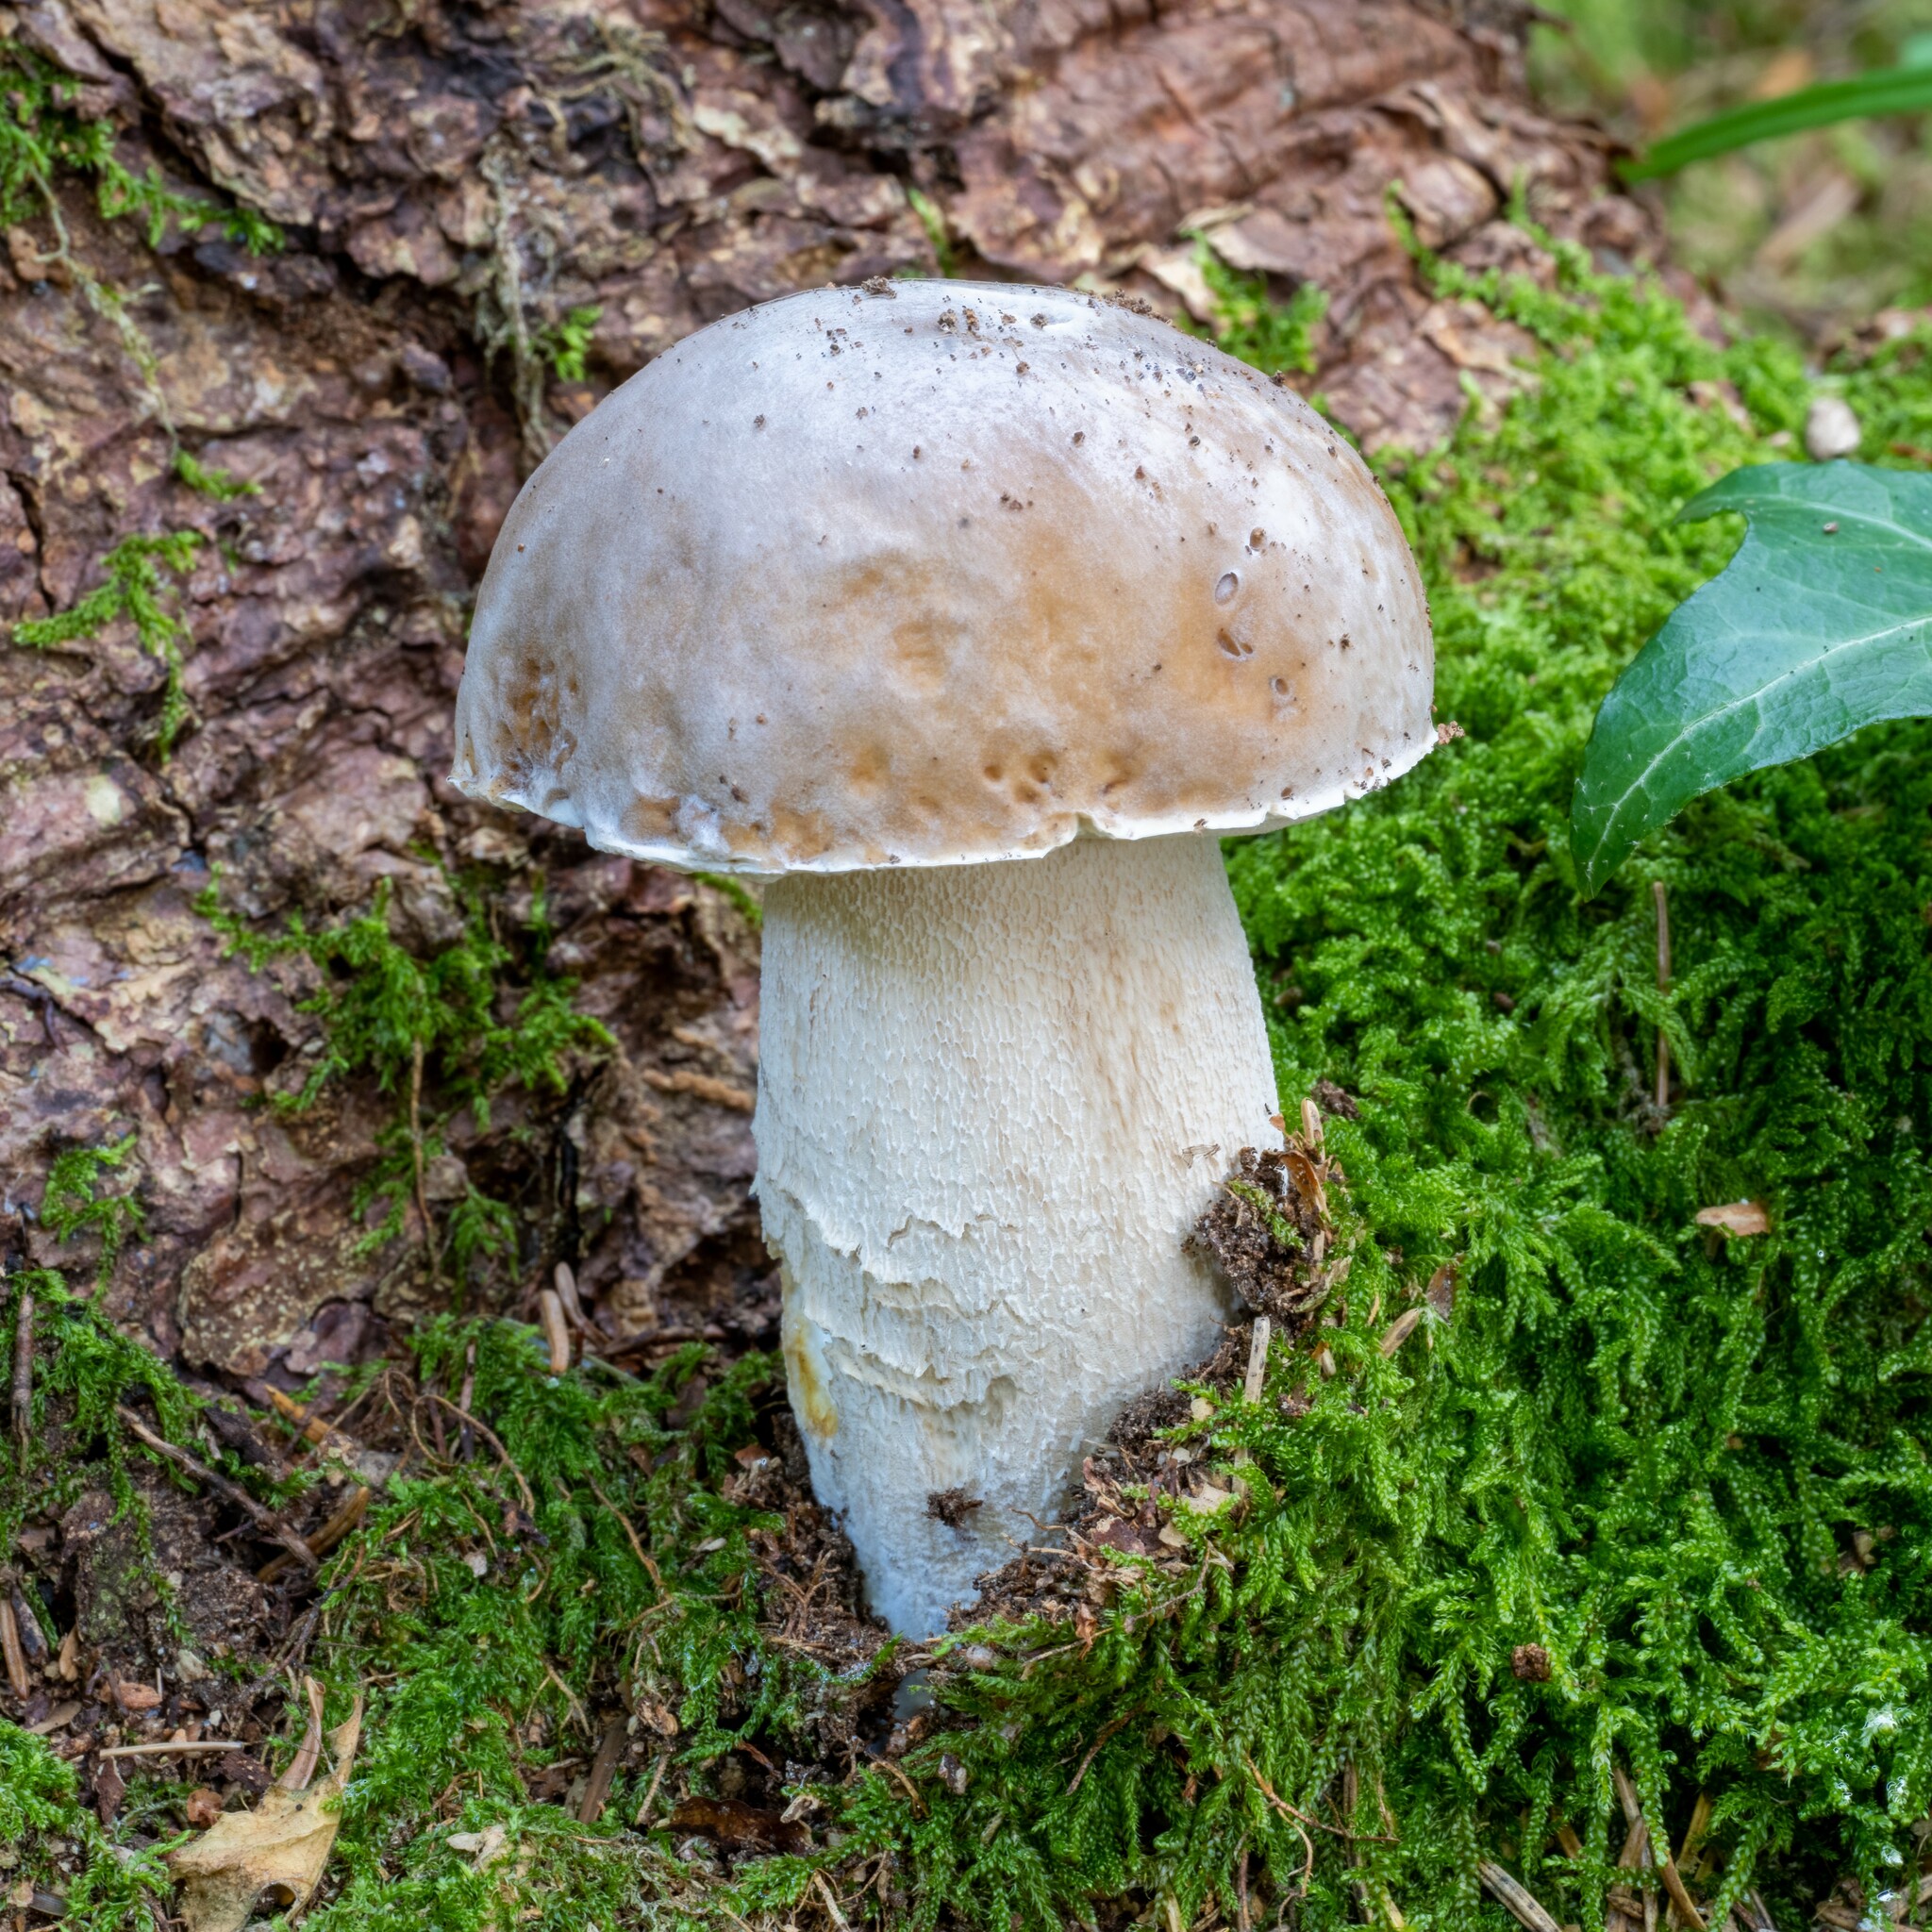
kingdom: Fungi
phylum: Basidiomycota
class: Agaricomycetes
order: Boletales
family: Boletaceae
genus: Boletus
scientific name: Boletus edulis
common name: Cep
